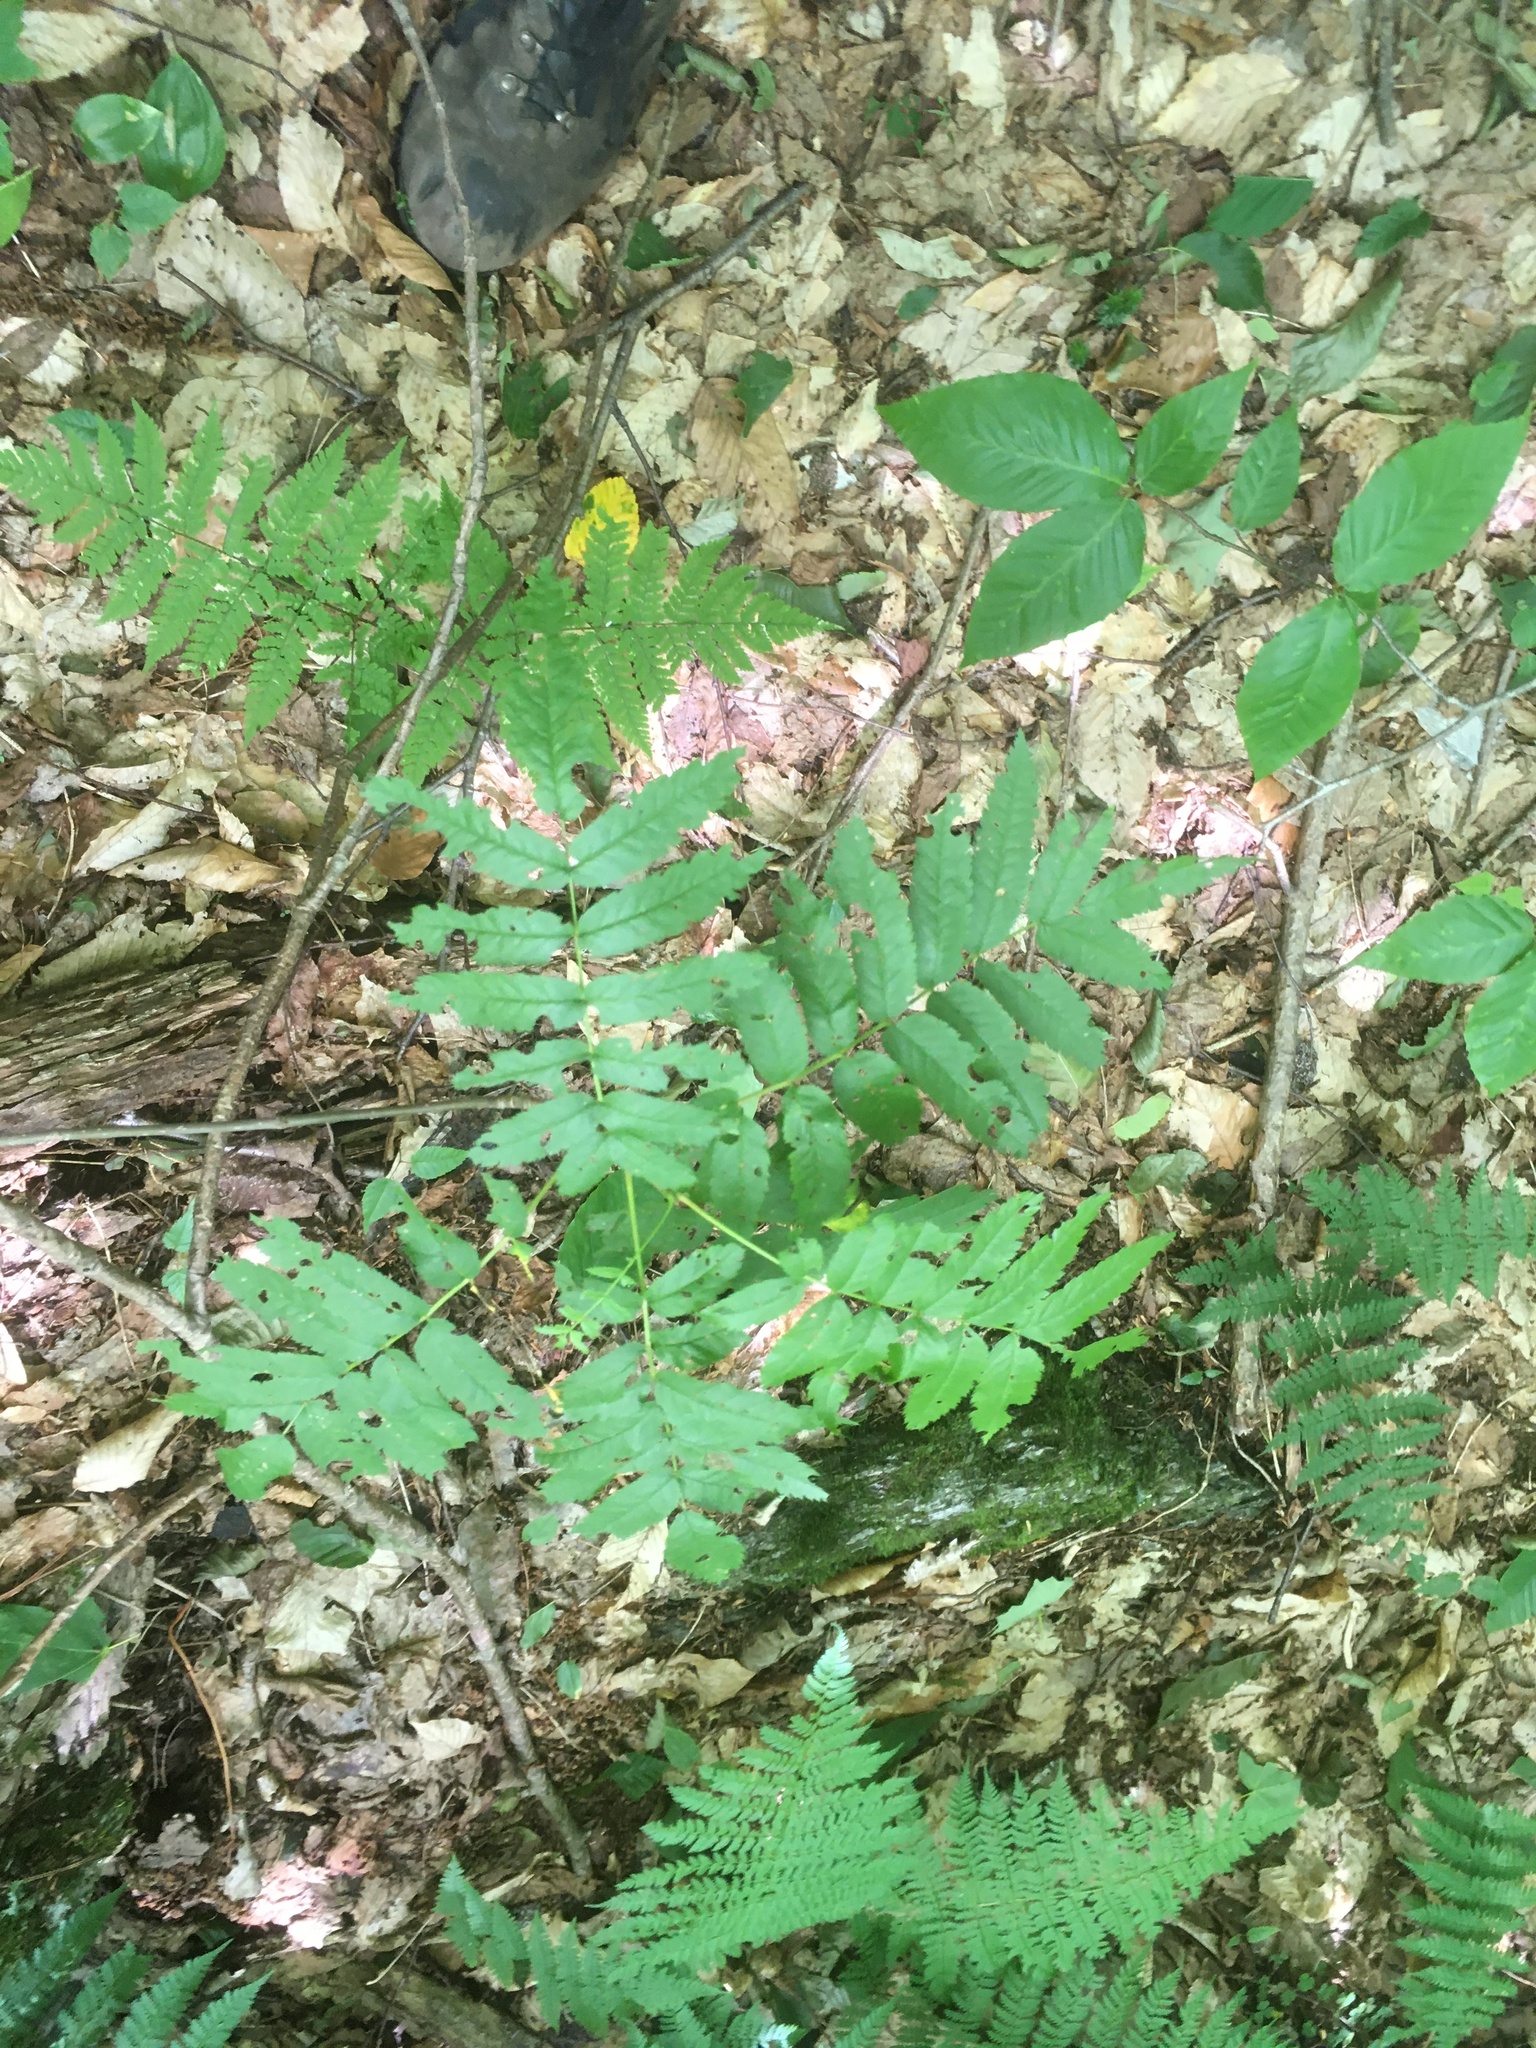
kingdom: Plantae
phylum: Tracheophyta
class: Magnoliopsida
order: Rosales
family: Rosaceae
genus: Sorbus
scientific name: Sorbus americana
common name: American mountain-ash
